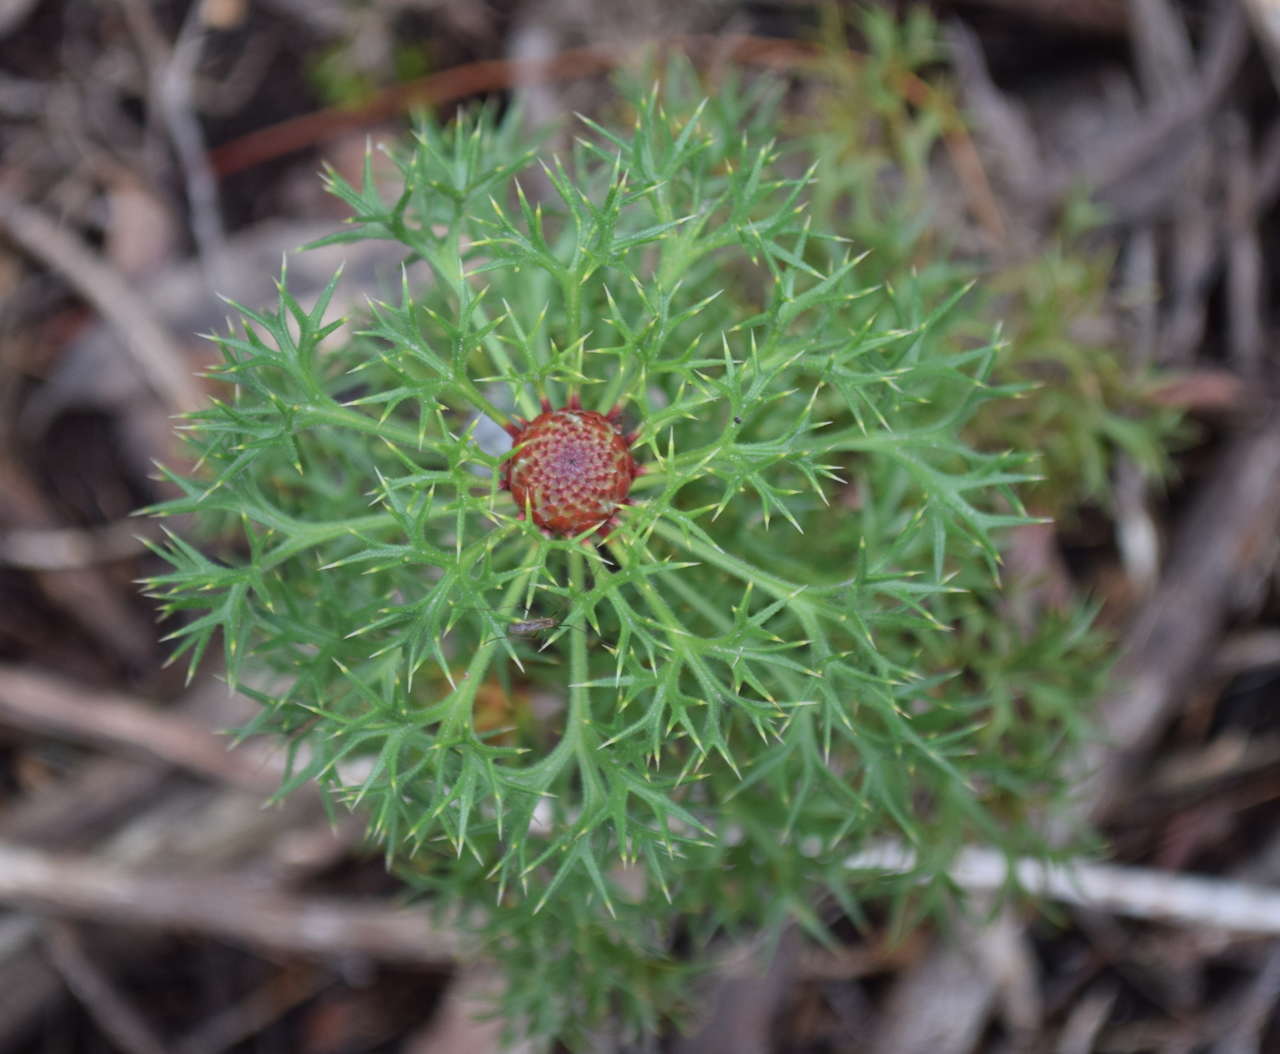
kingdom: Plantae
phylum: Tracheophyta
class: Magnoliopsida
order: Proteales
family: Proteaceae
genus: Isopogon
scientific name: Isopogon ceratophyllus
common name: Horny cone-bush
